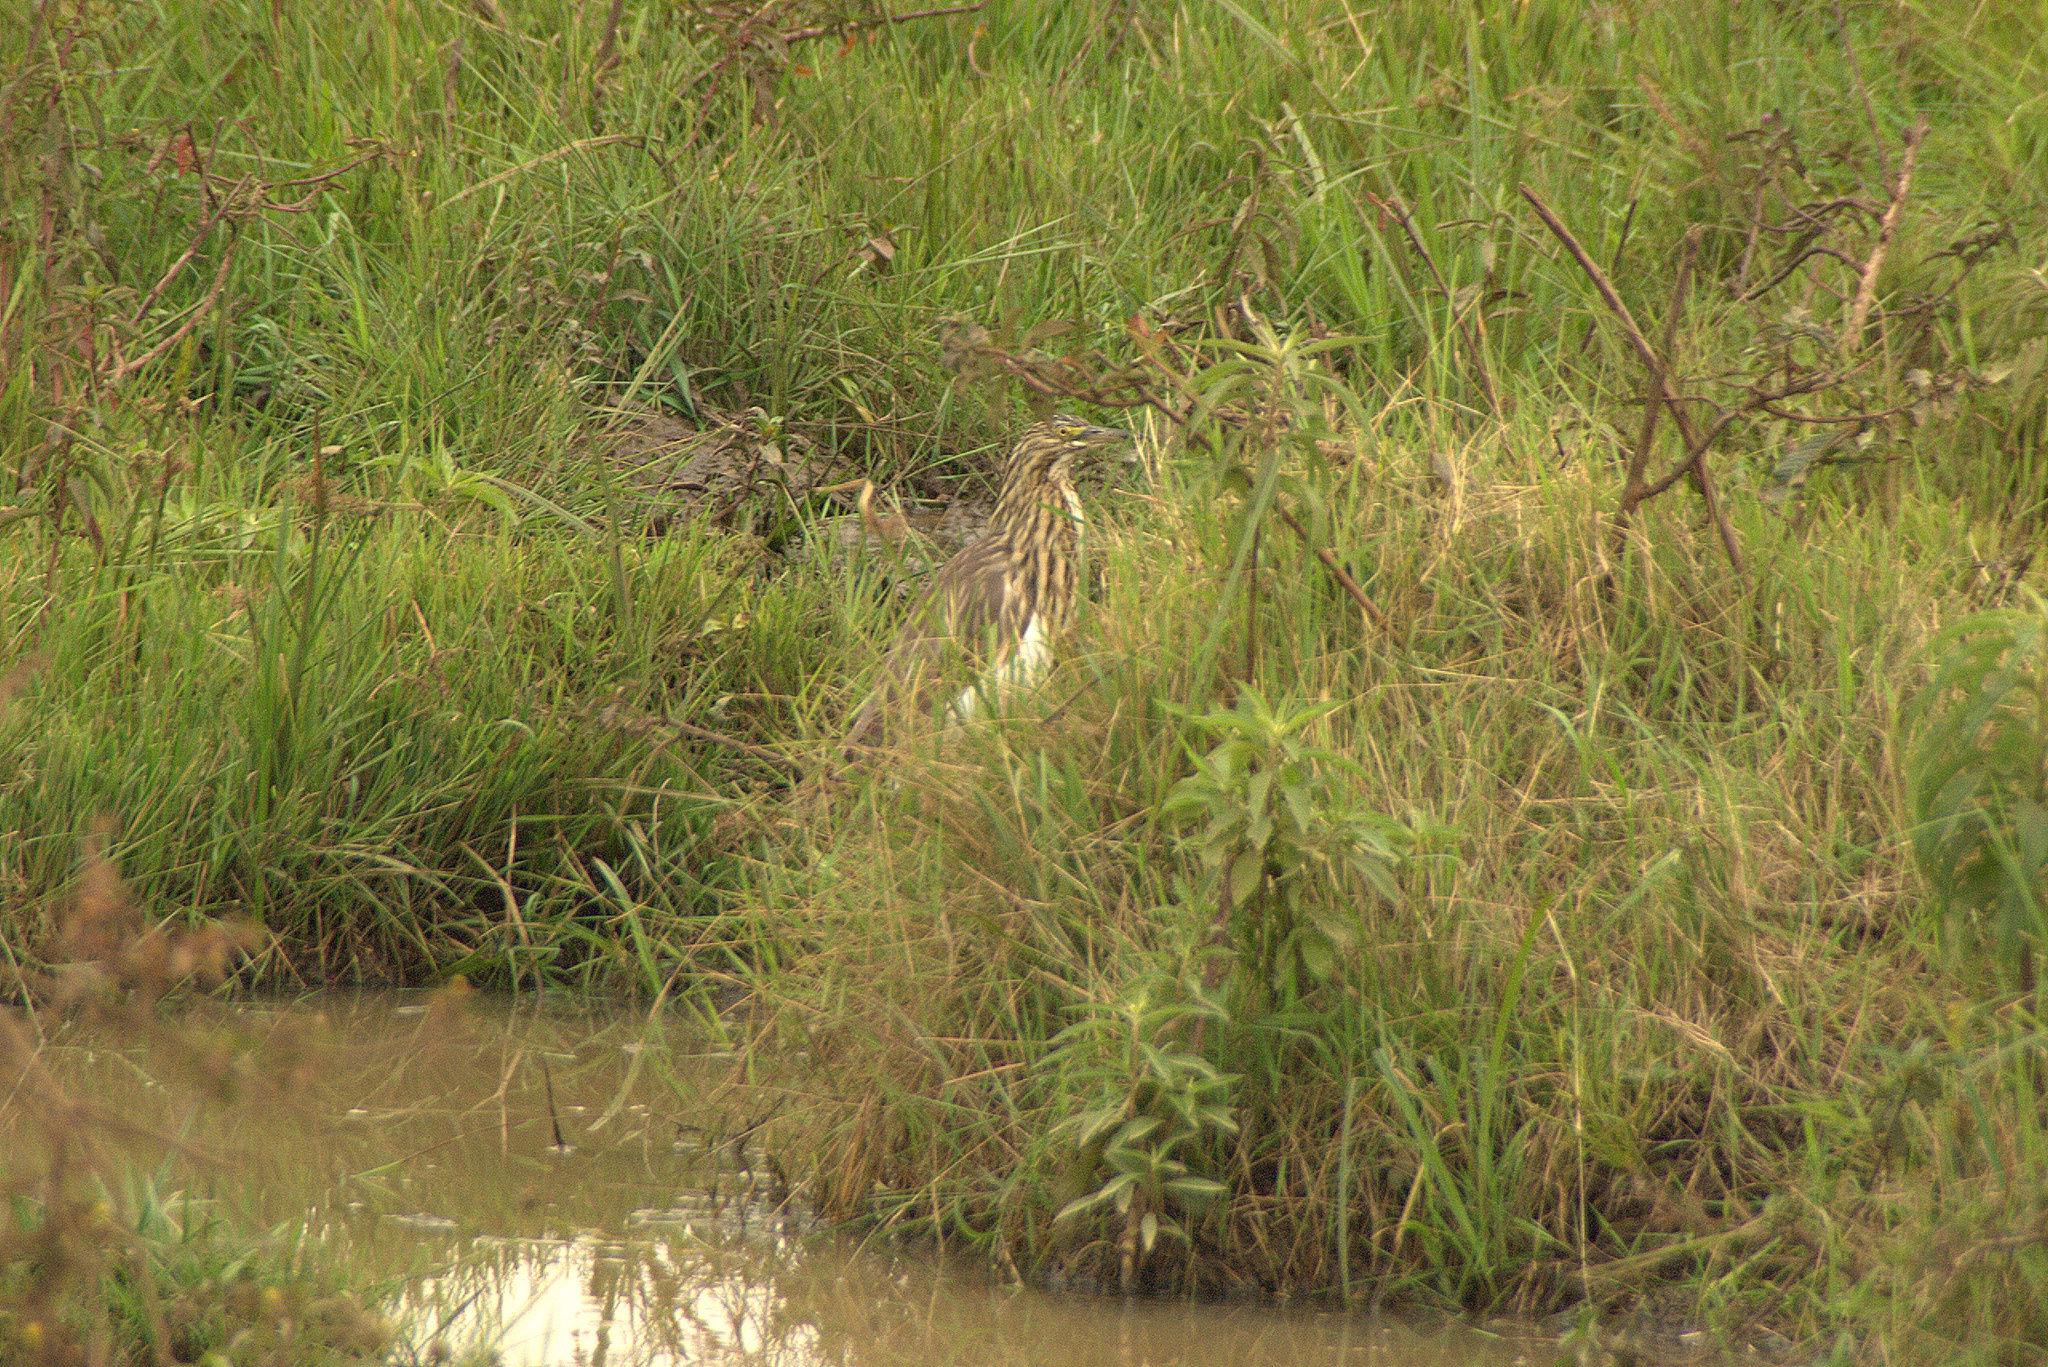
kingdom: Animalia
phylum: Chordata
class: Aves
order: Pelecaniformes
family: Ardeidae
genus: Ardeola
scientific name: Ardeola idae
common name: Malagasy pond heron
